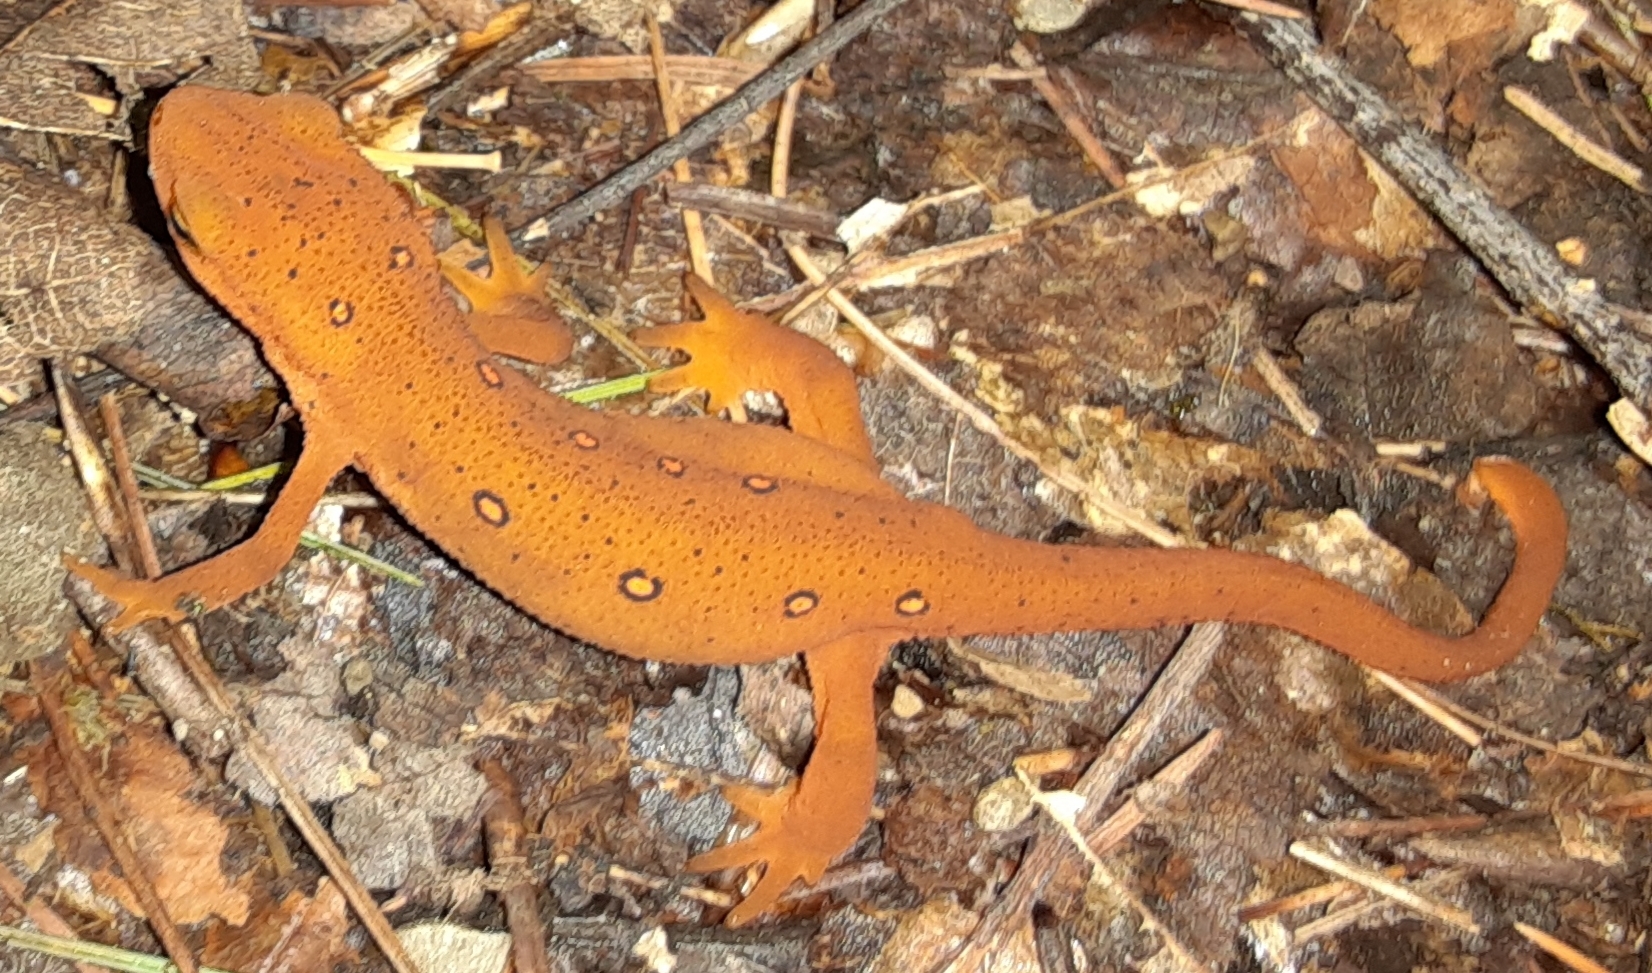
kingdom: Animalia
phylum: Chordata
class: Amphibia
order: Caudata
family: Salamandridae
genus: Notophthalmus
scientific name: Notophthalmus viridescens
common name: Eastern newt
